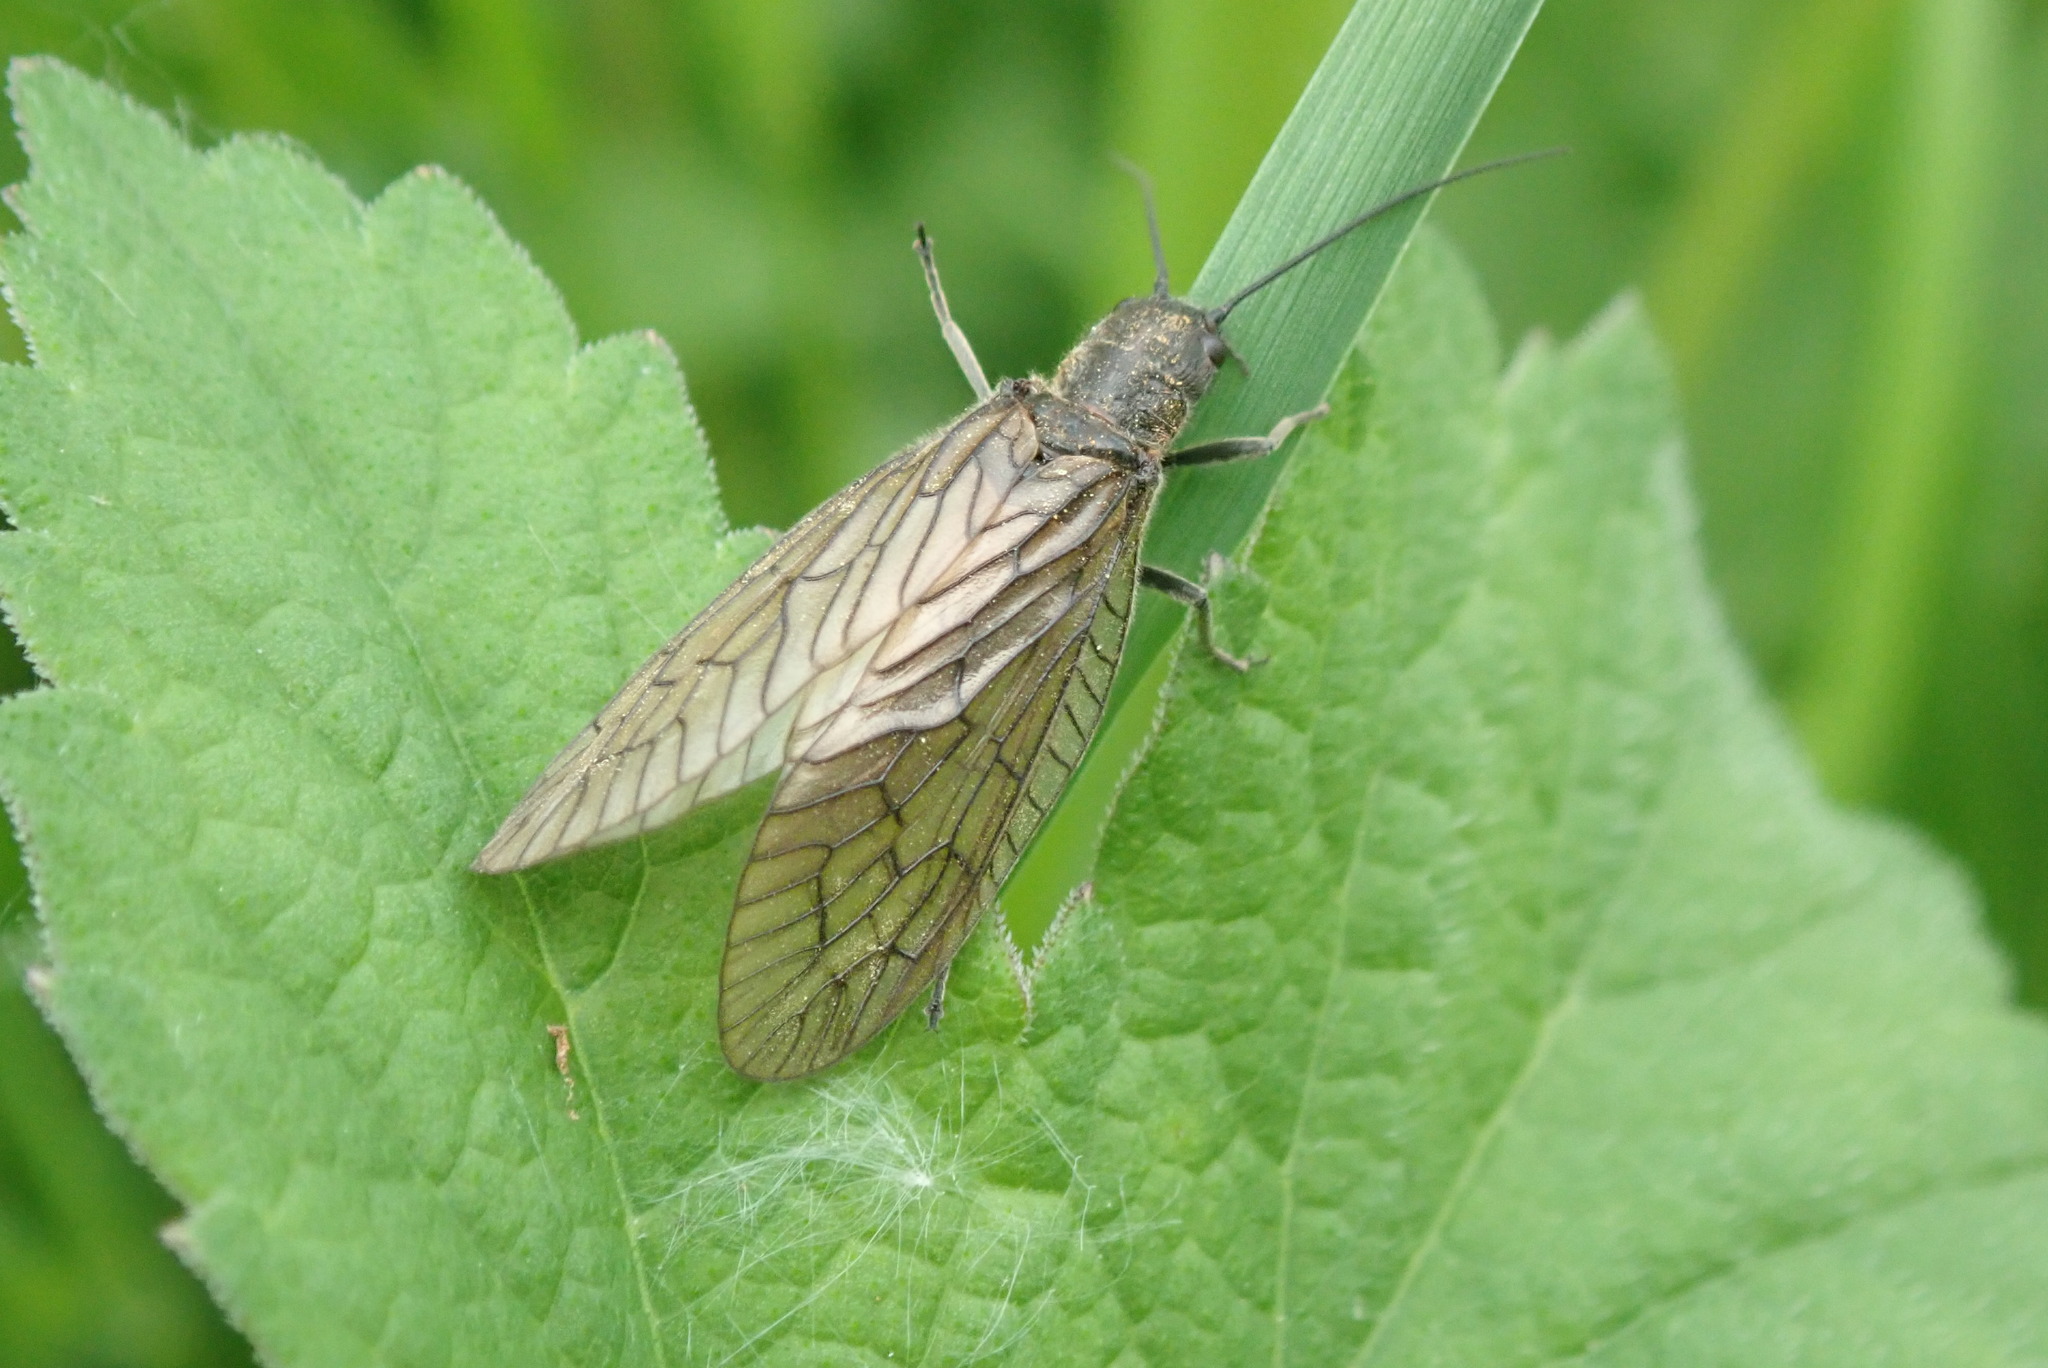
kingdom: Animalia
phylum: Arthropoda
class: Insecta
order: Megaloptera
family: Sialidae
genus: Sialis
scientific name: Sialis
